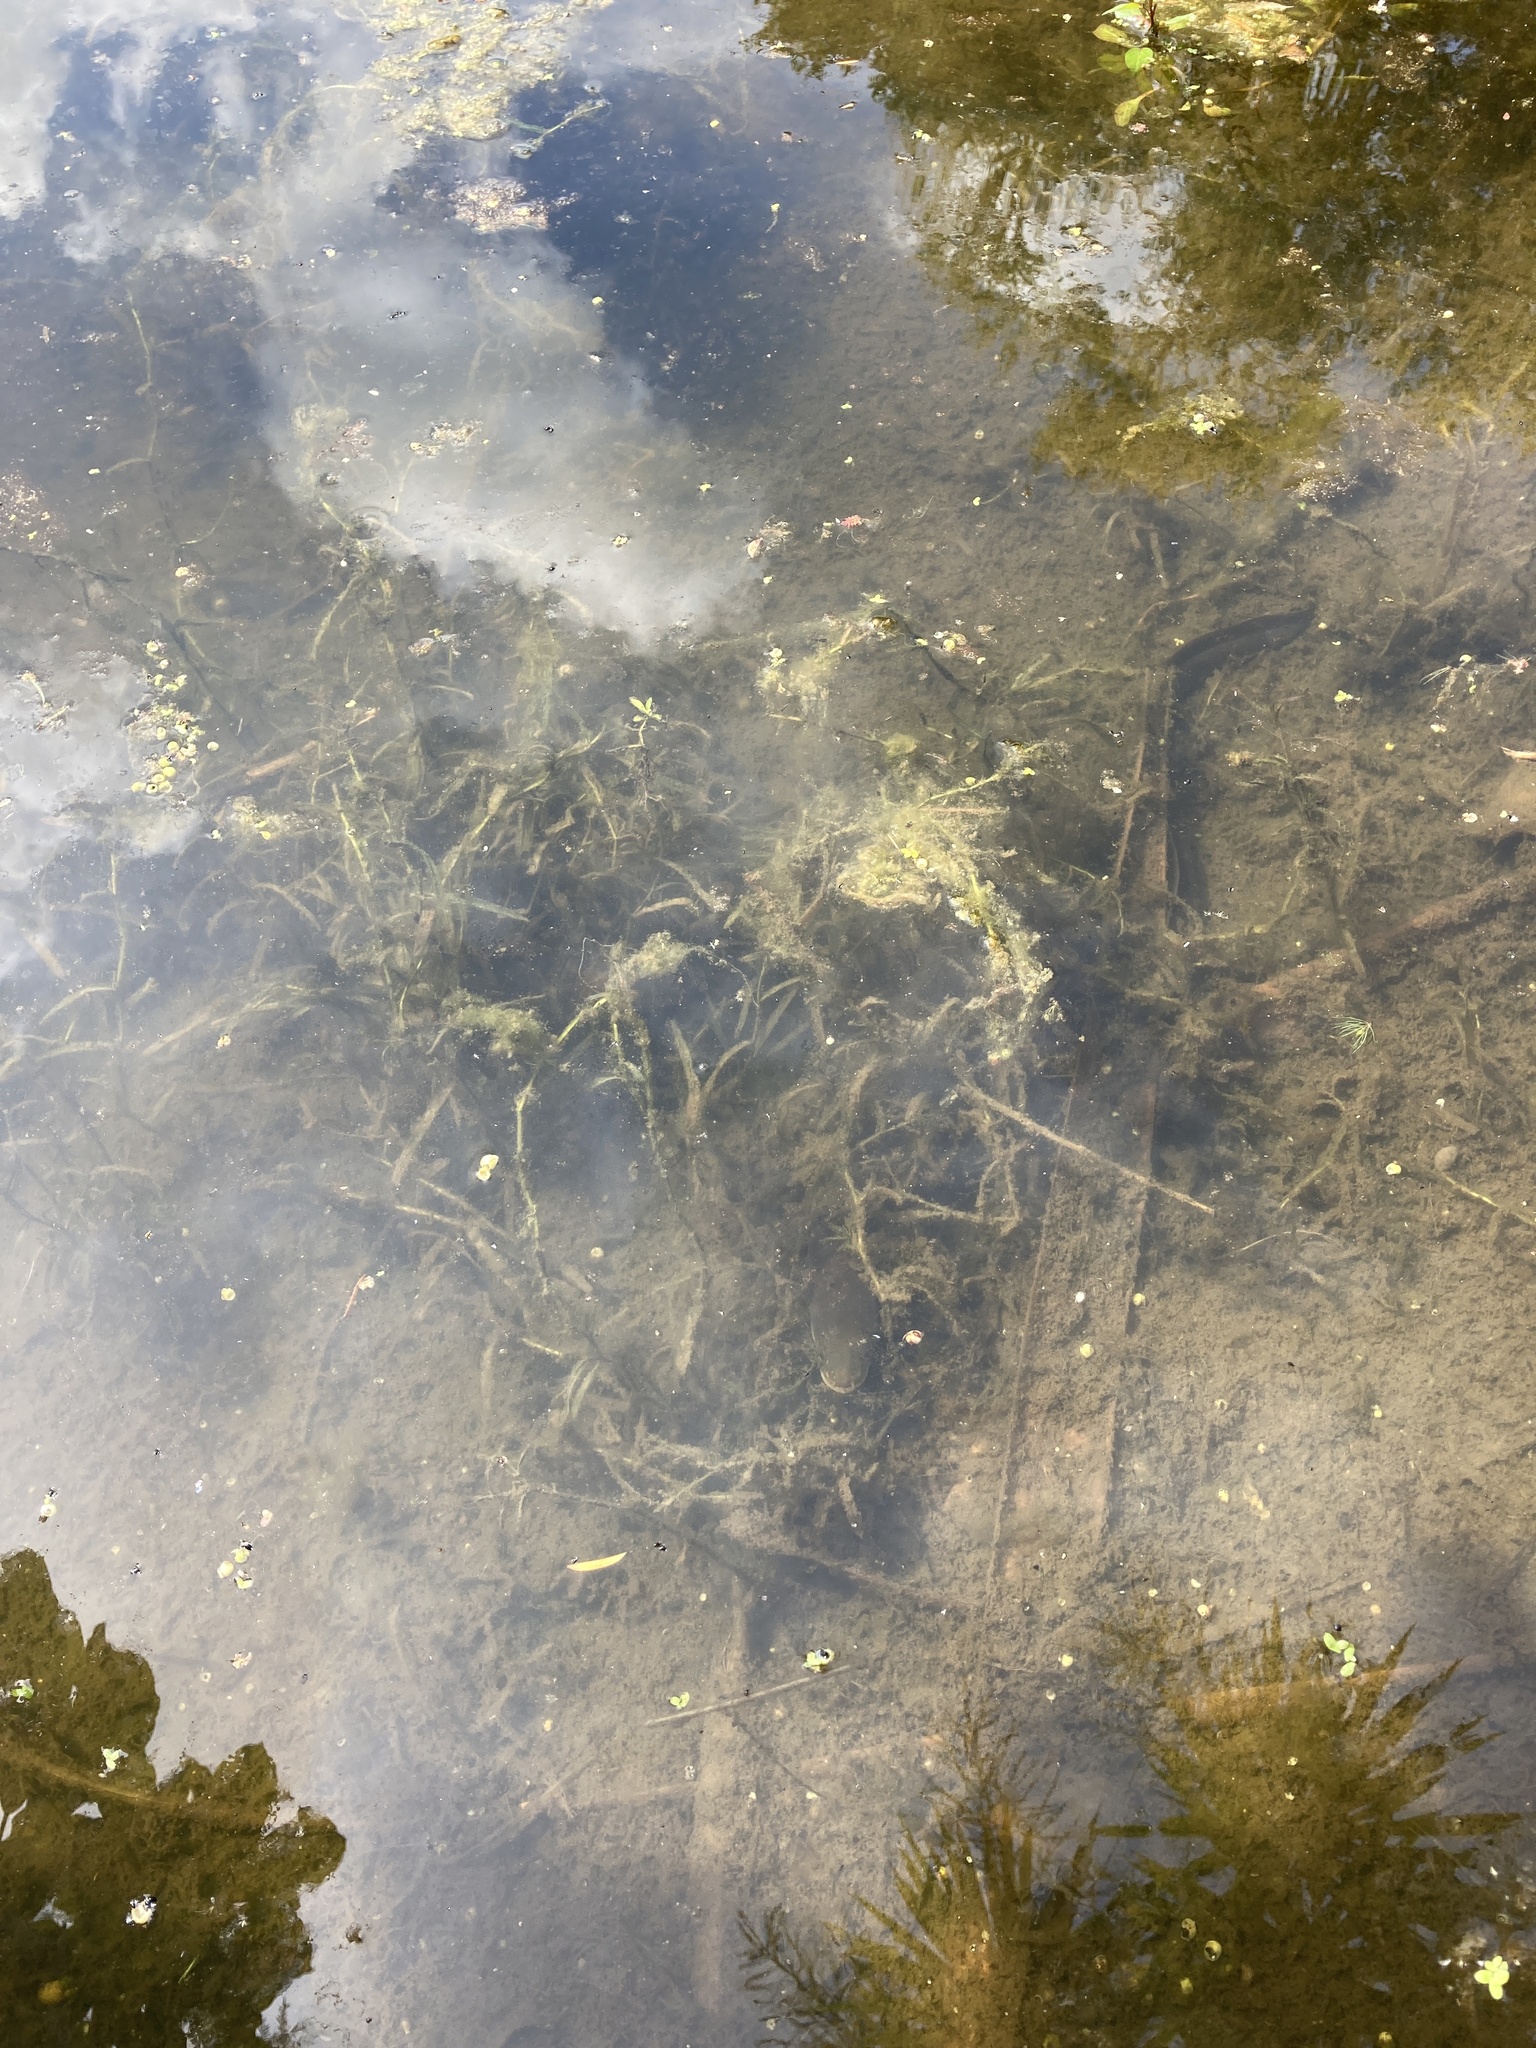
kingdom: Animalia
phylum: Chordata
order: Anguilliformes
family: Anguillidae
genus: Anguilla
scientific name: Anguilla australis
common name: Shortfin eel
